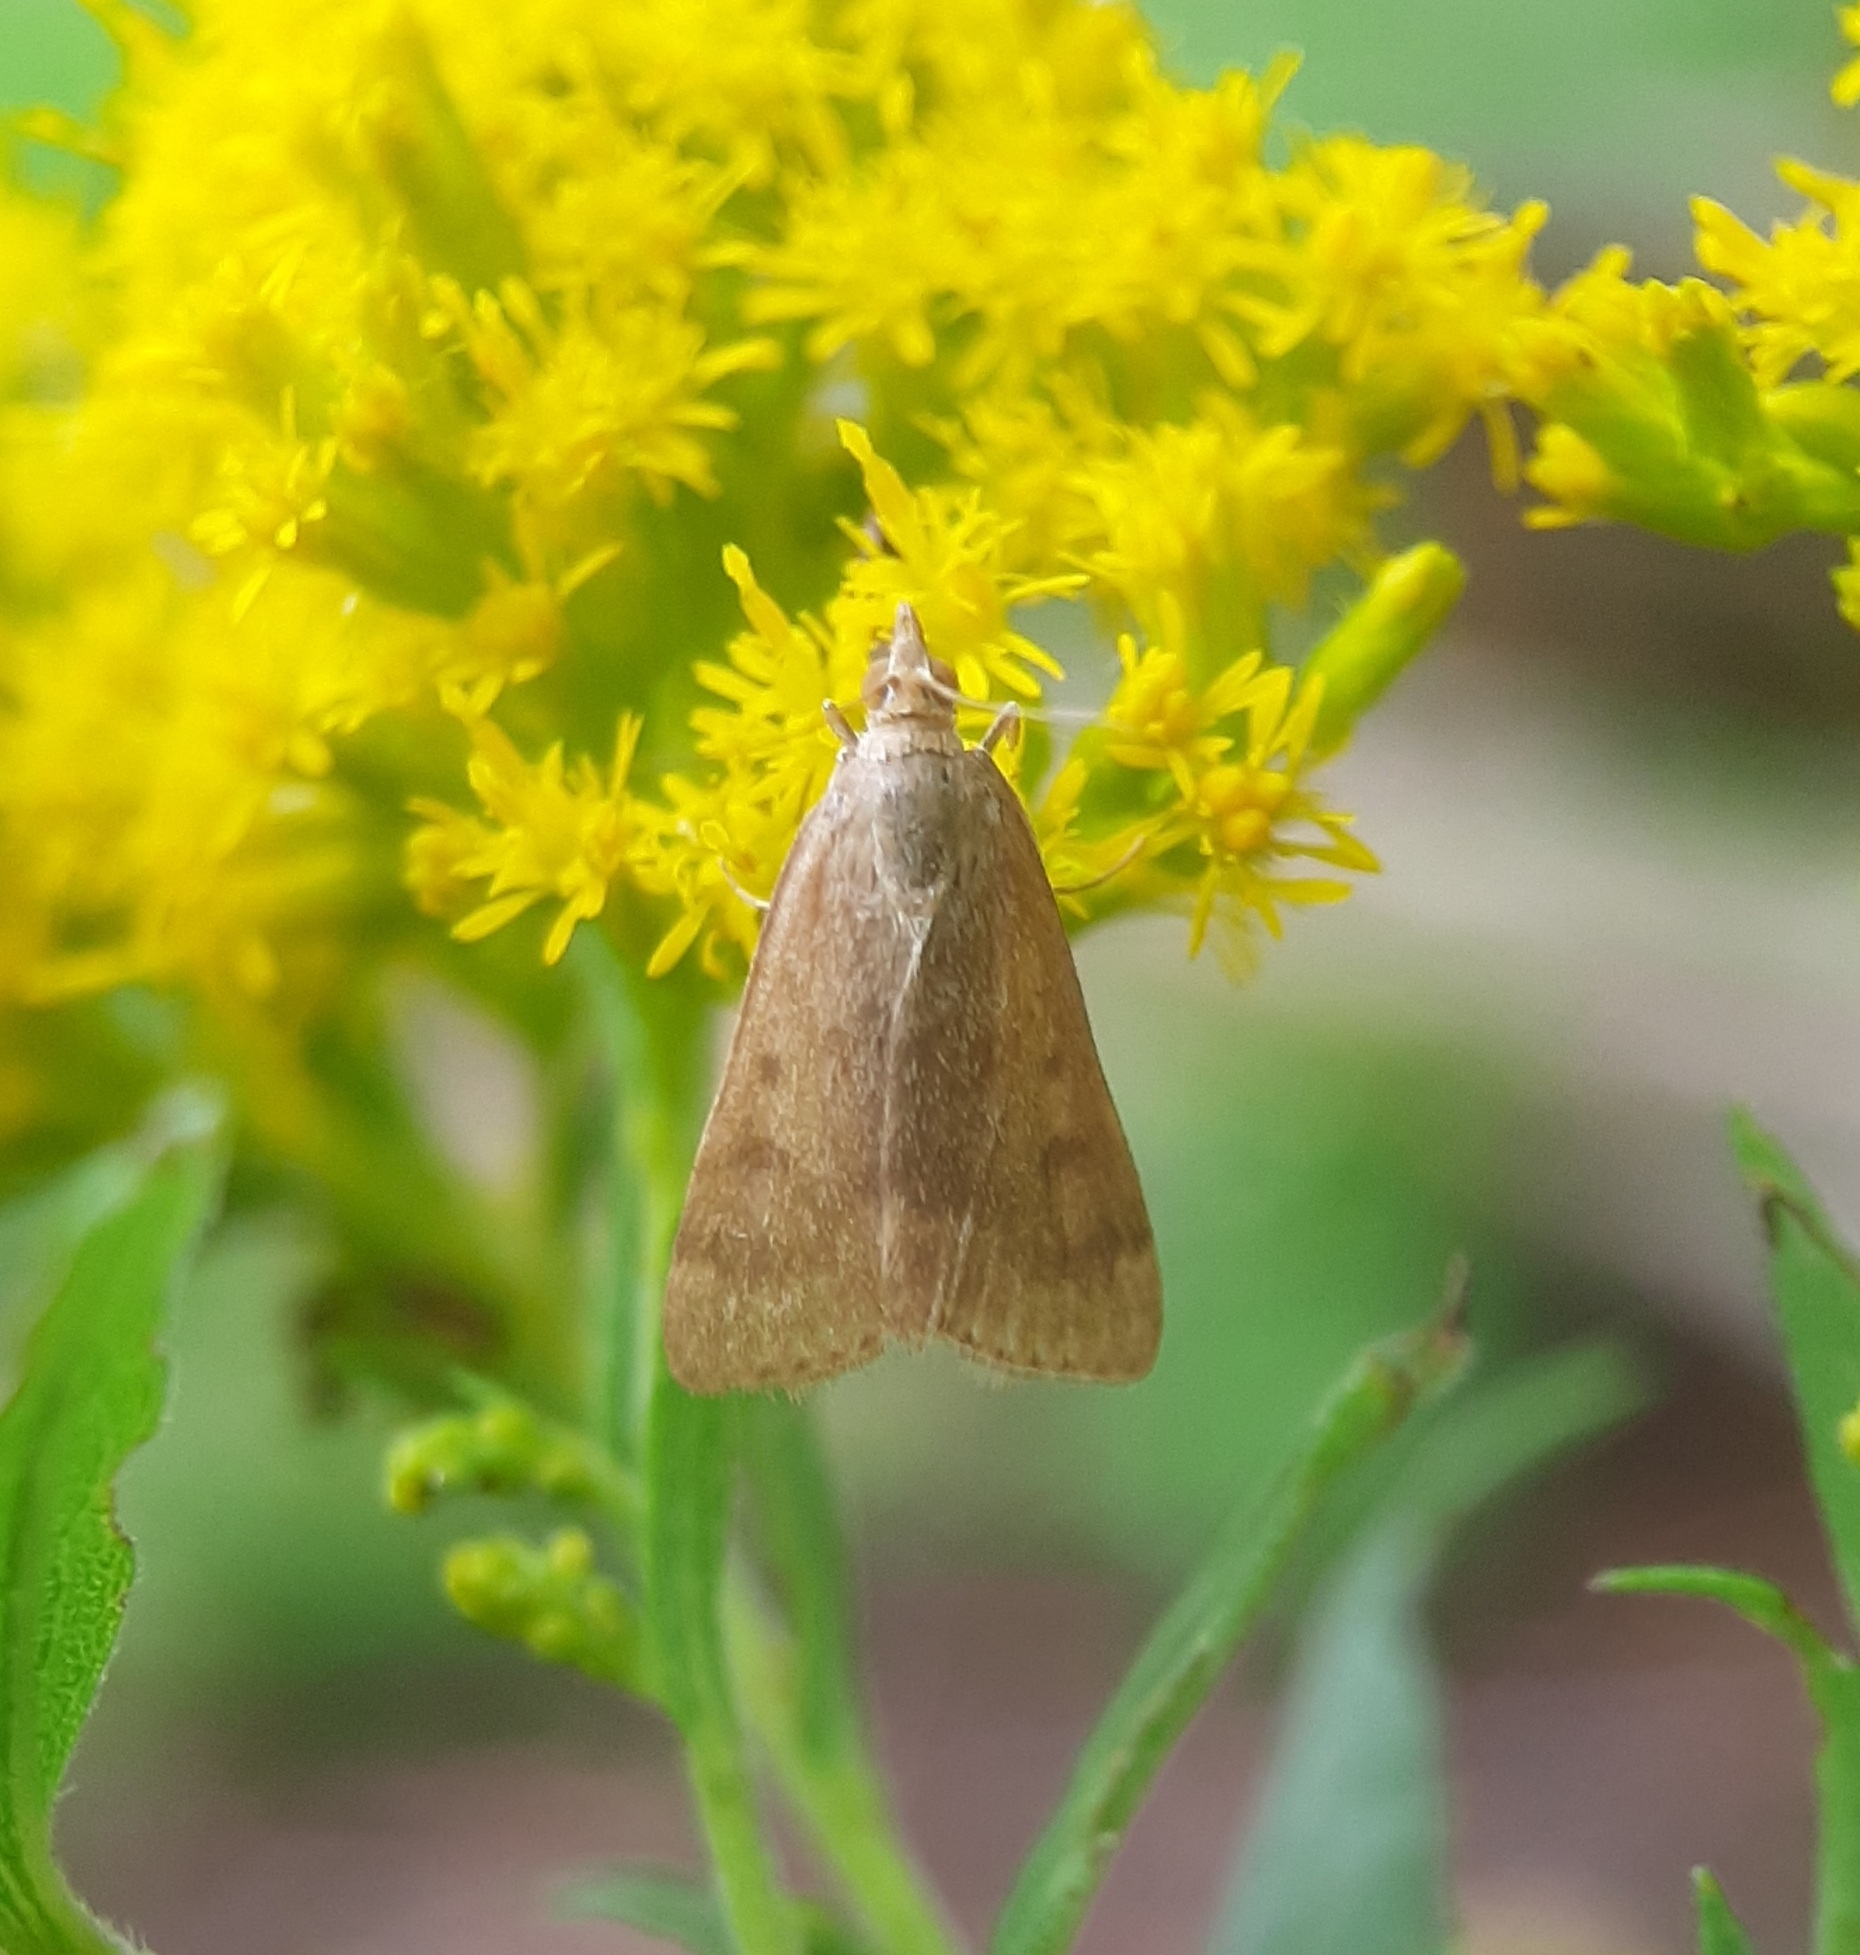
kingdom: Animalia
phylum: Arthropoda
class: Insecta
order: Lepidoptera
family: Crambidae
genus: Achyra
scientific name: Achyra rantalis
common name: Garden webworm
